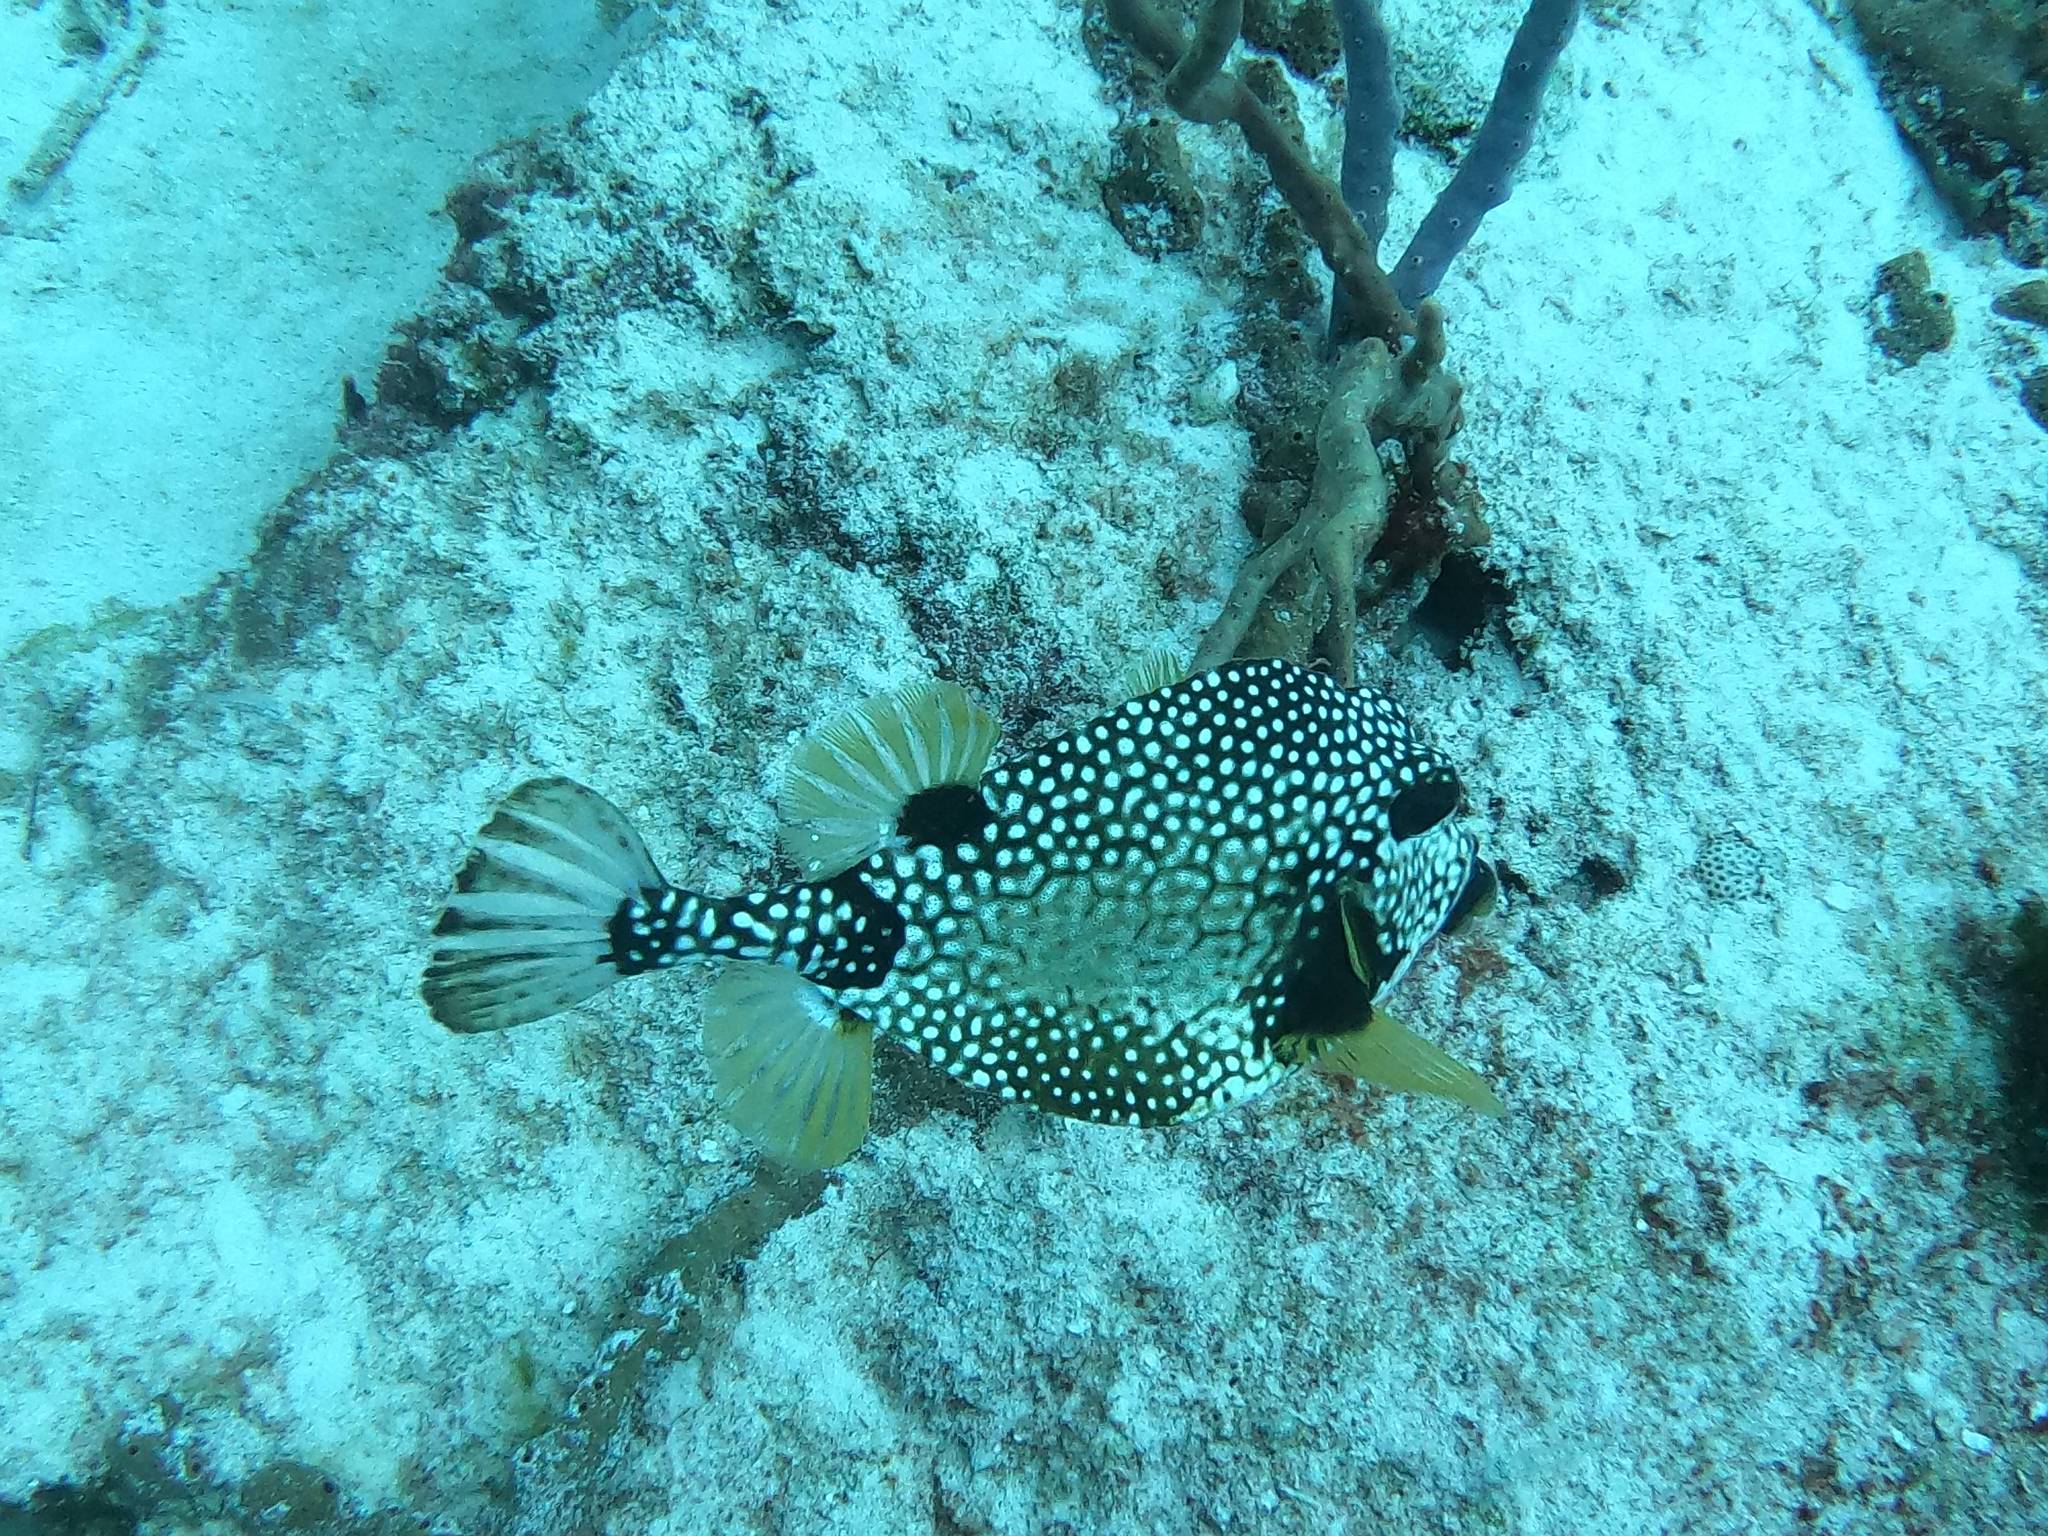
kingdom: Animalia
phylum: Chordata
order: Tetraodontiformes
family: Ostraciidae
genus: Lactophrys
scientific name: Lactophrys triqueter
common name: Smooth trunkfish
